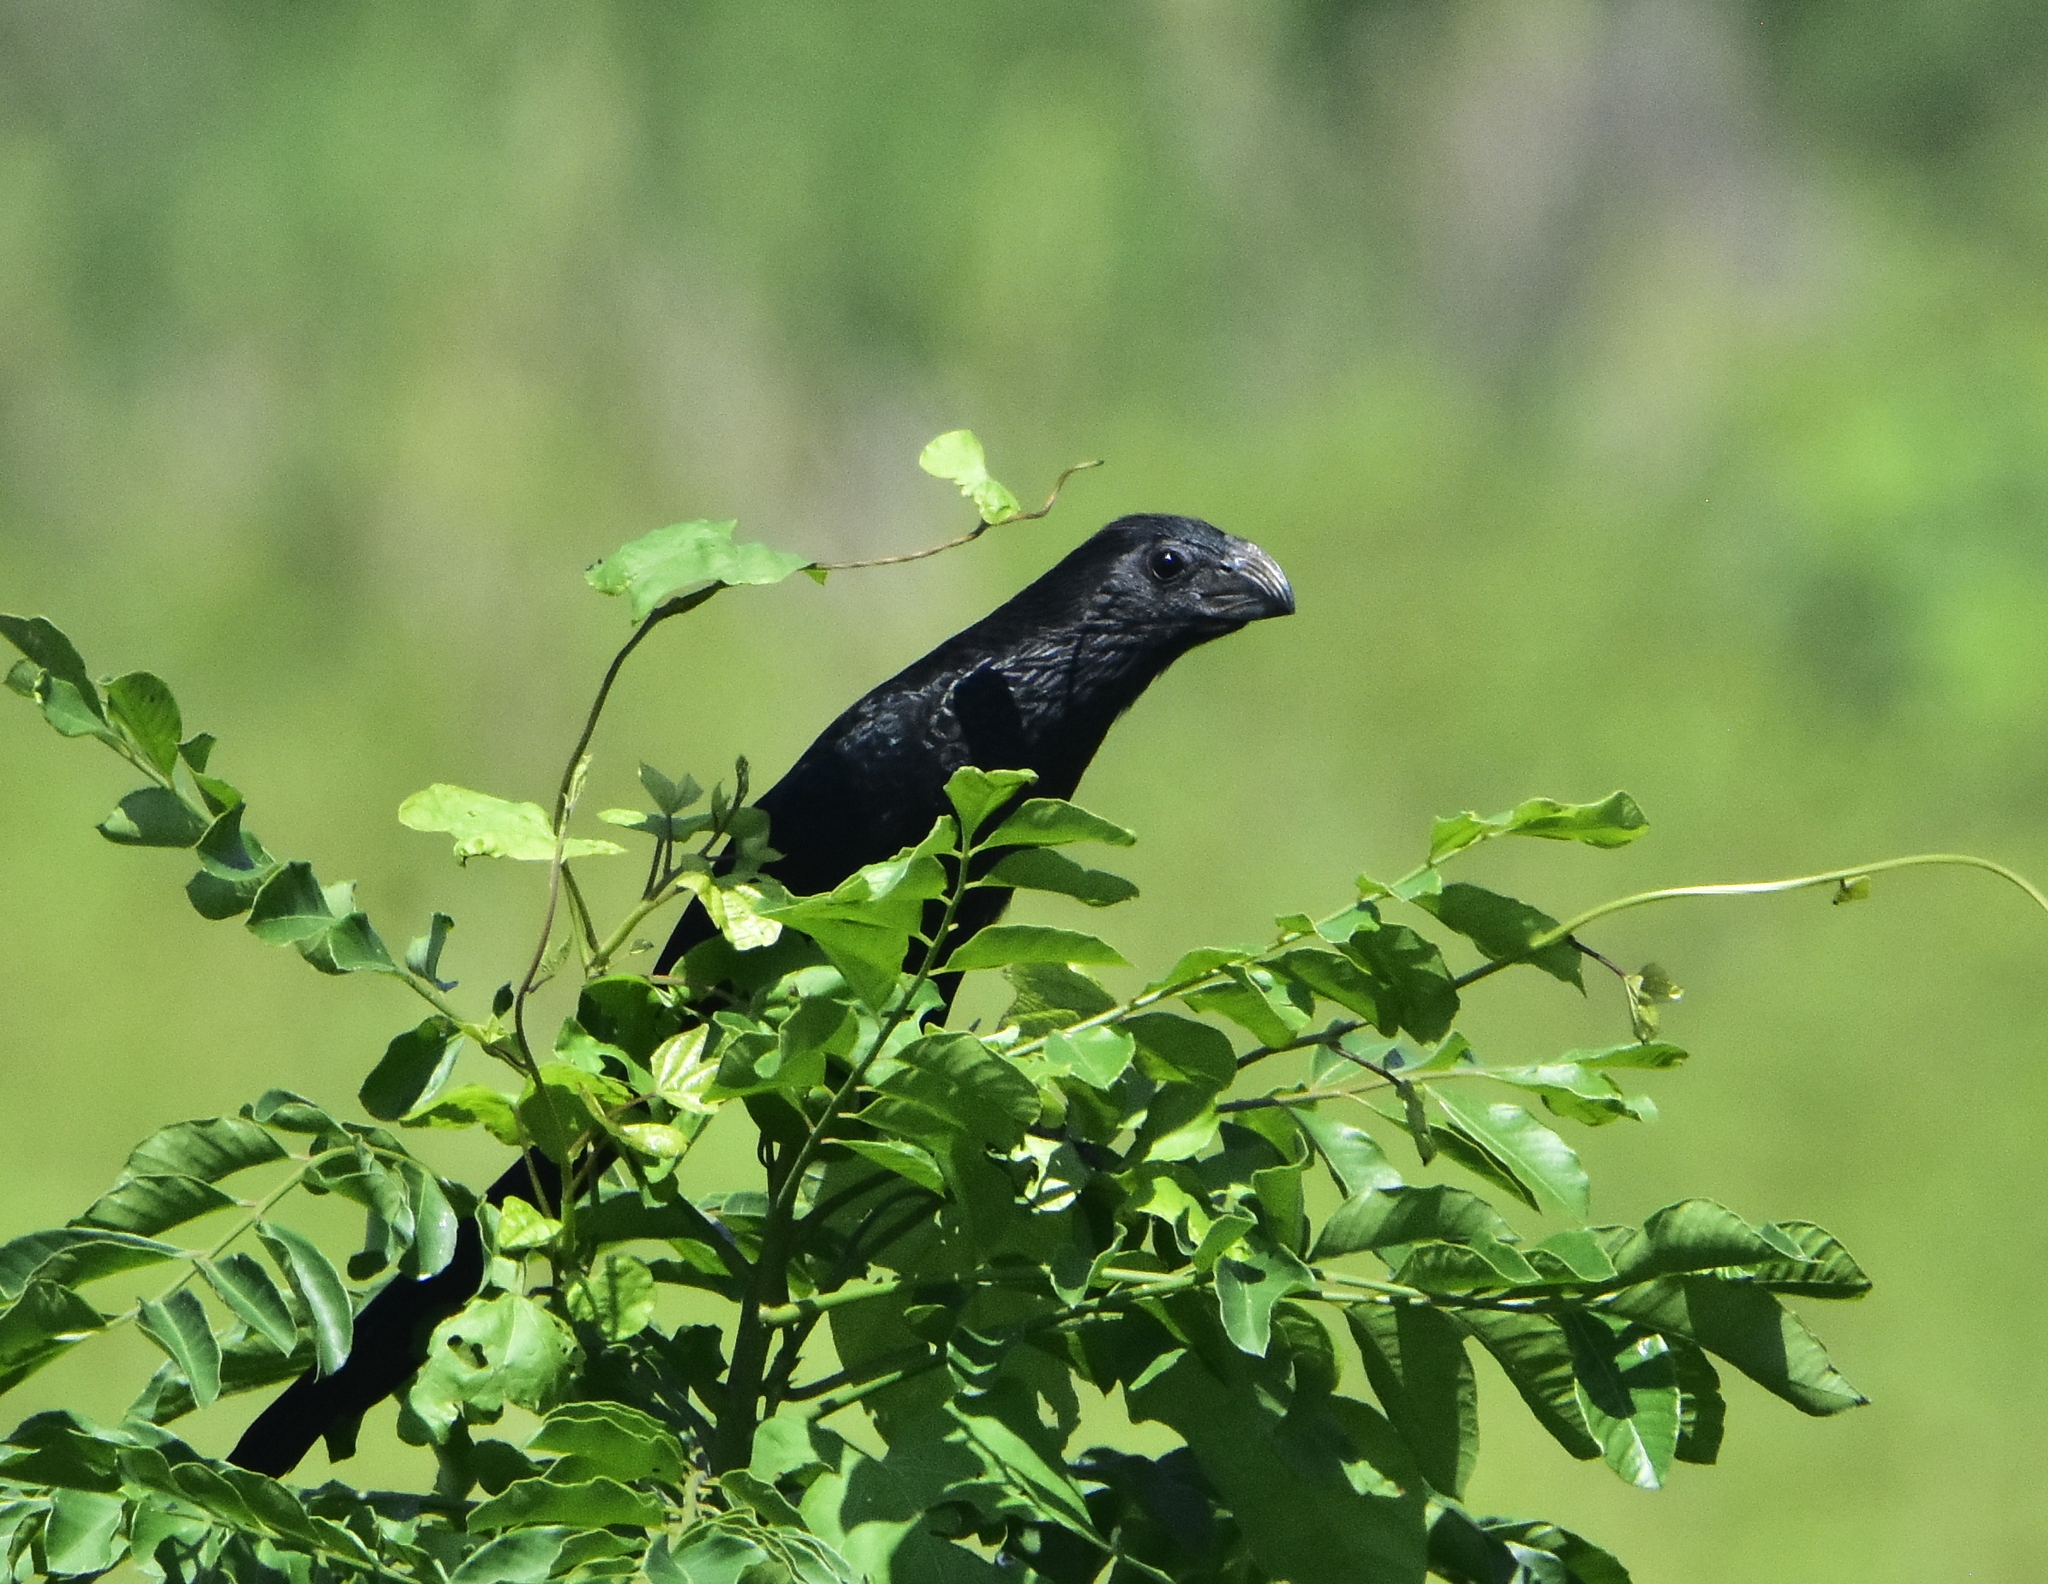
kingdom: Animalia
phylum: Chordata
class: Aves
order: Cuculiformes
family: Cuculidae
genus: Crotophaga
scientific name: Crotophaga sulcirostris
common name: Groove-billed ani
